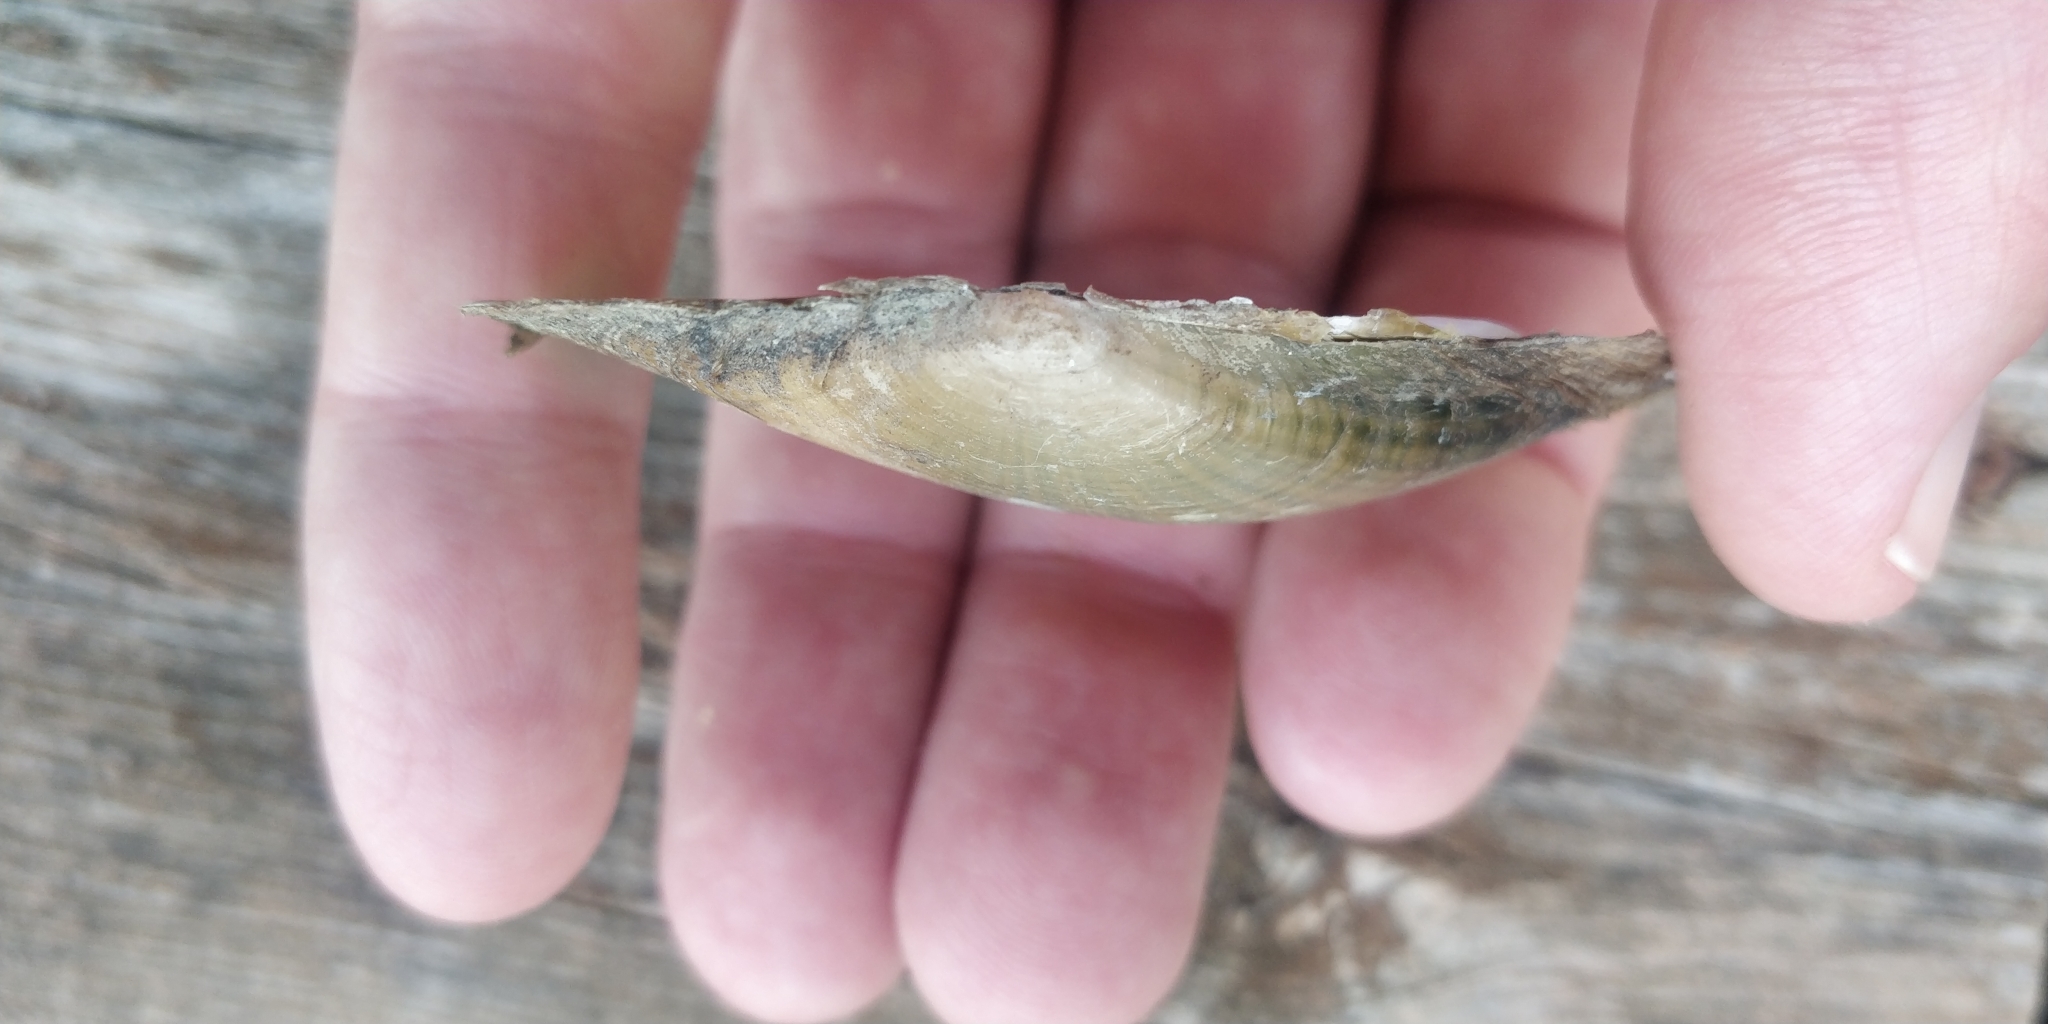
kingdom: Animalia
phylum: Mollusca
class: Bivalvia
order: Unionida
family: Unionidae
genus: Potamilus
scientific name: Potamilus fragilis
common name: Fragile papershell
